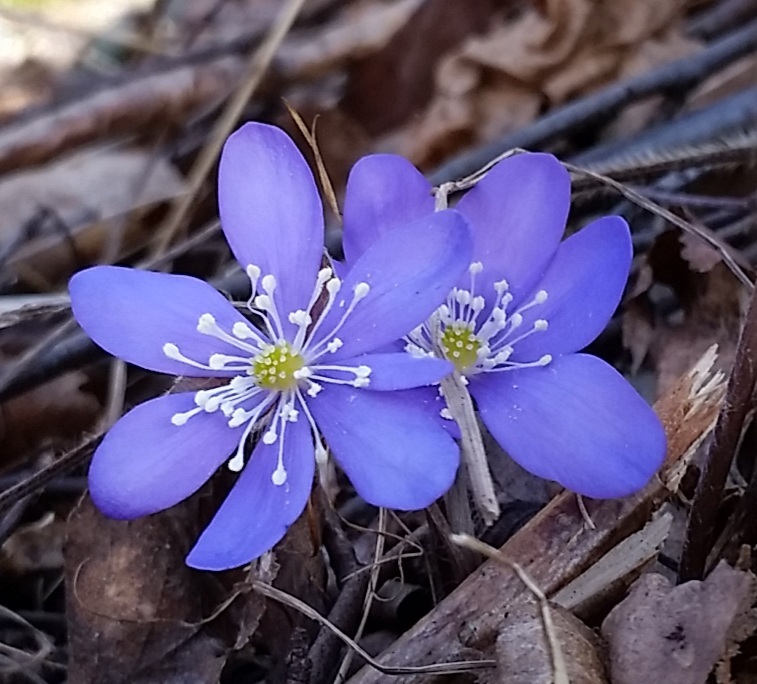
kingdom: Plantae
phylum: Tracheophyta
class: Magnoliopsida
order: Ranunculales
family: Ranunculaceae
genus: Hepatica
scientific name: Hepatica nobilis
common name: Liverleaf
